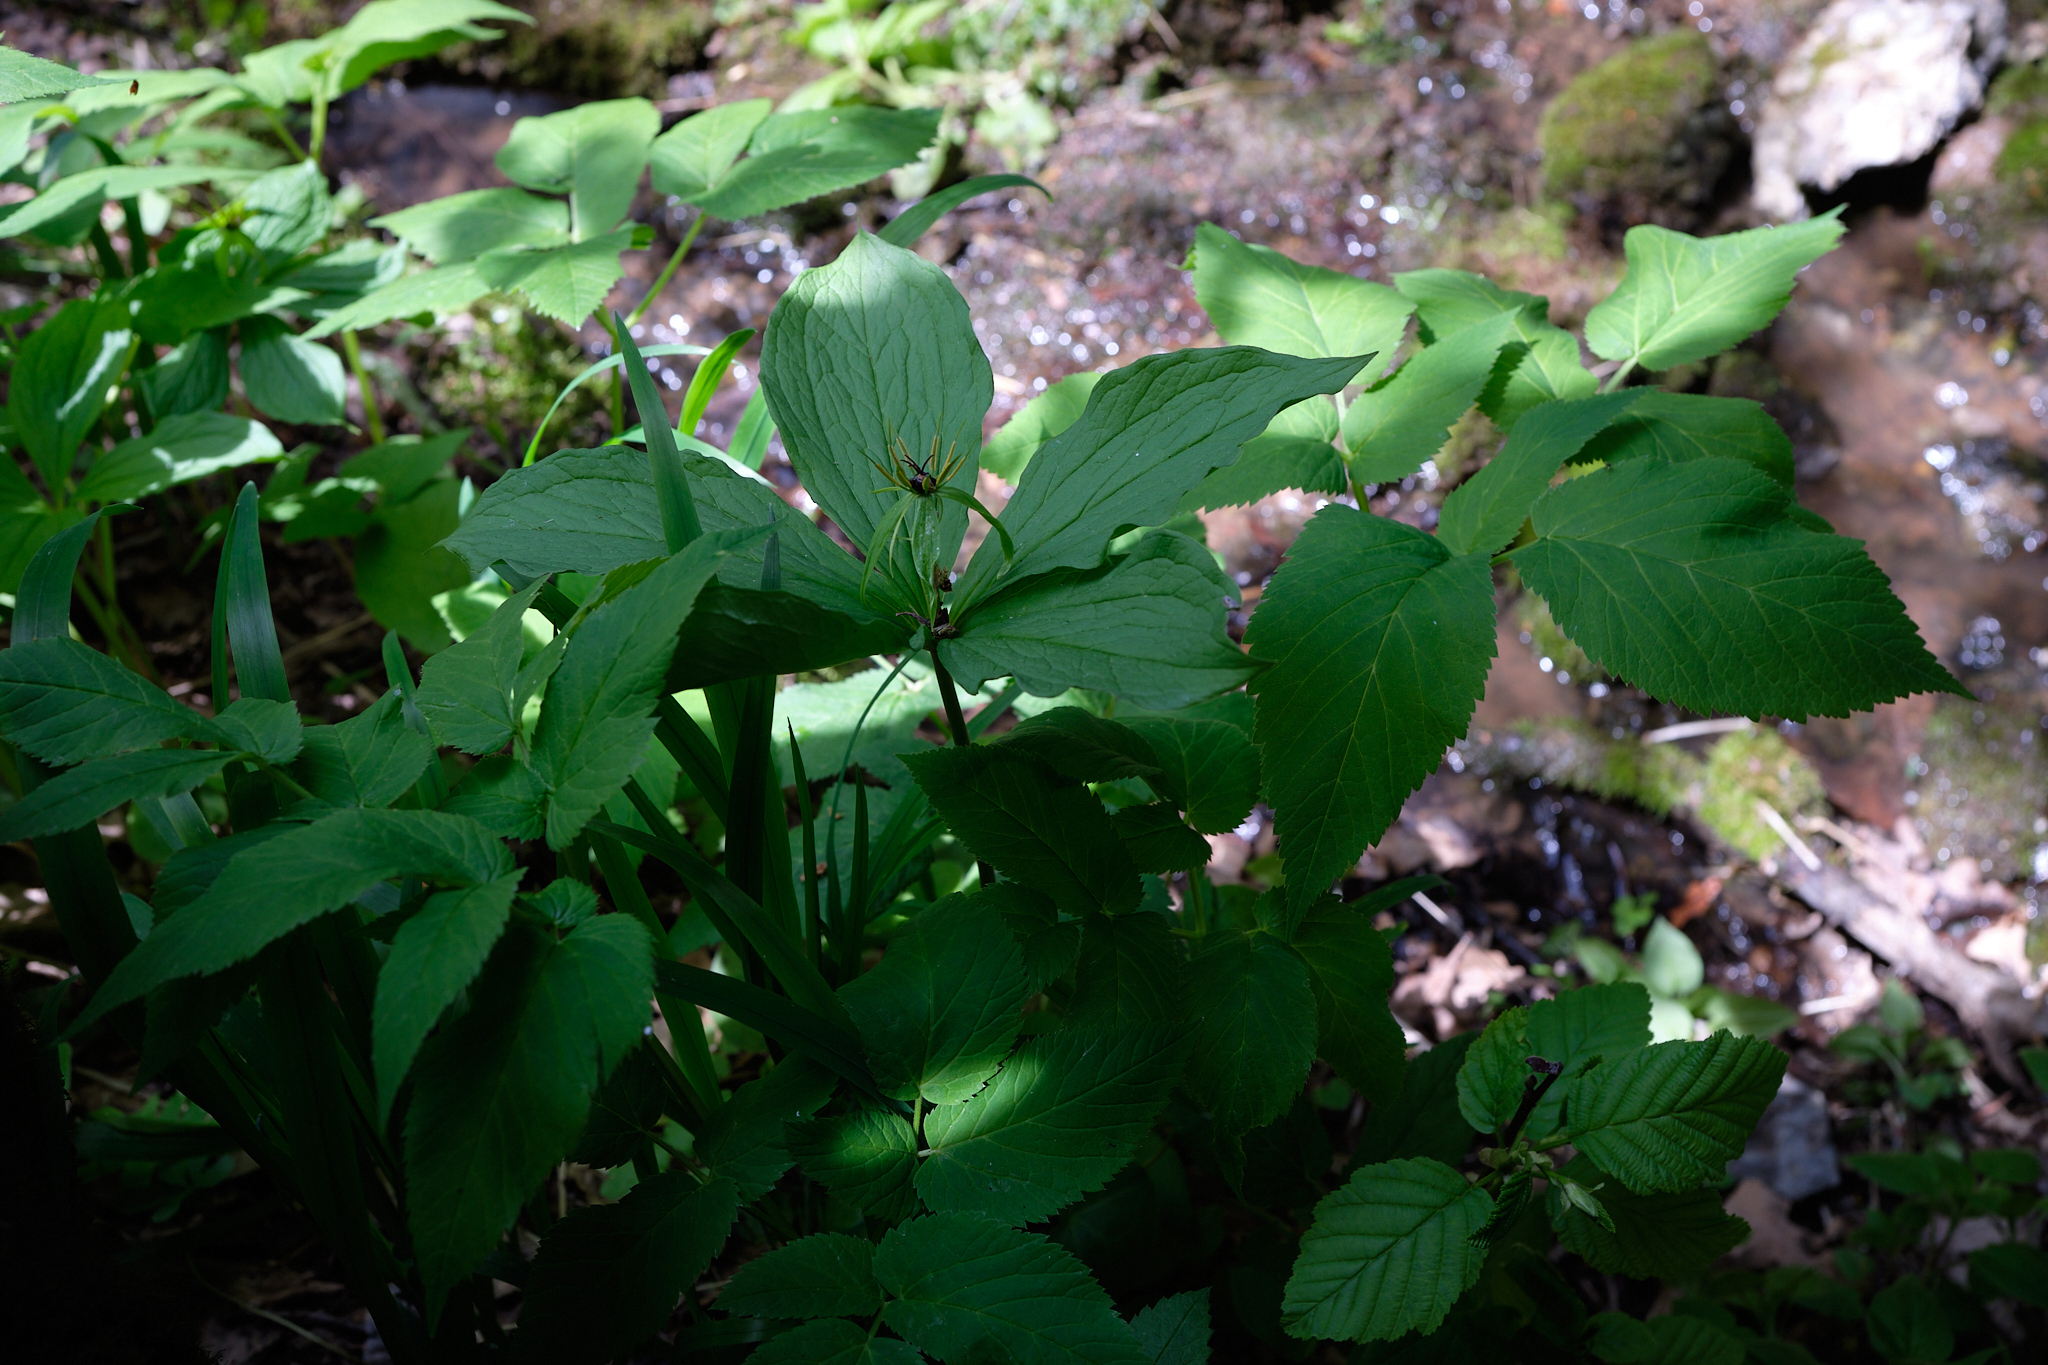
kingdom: Plantae
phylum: Tracheophyta
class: Liliopsida
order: Liliales
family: Melanthiaceae
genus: Paris
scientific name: Paris quadrifolia
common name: Herb-paris
